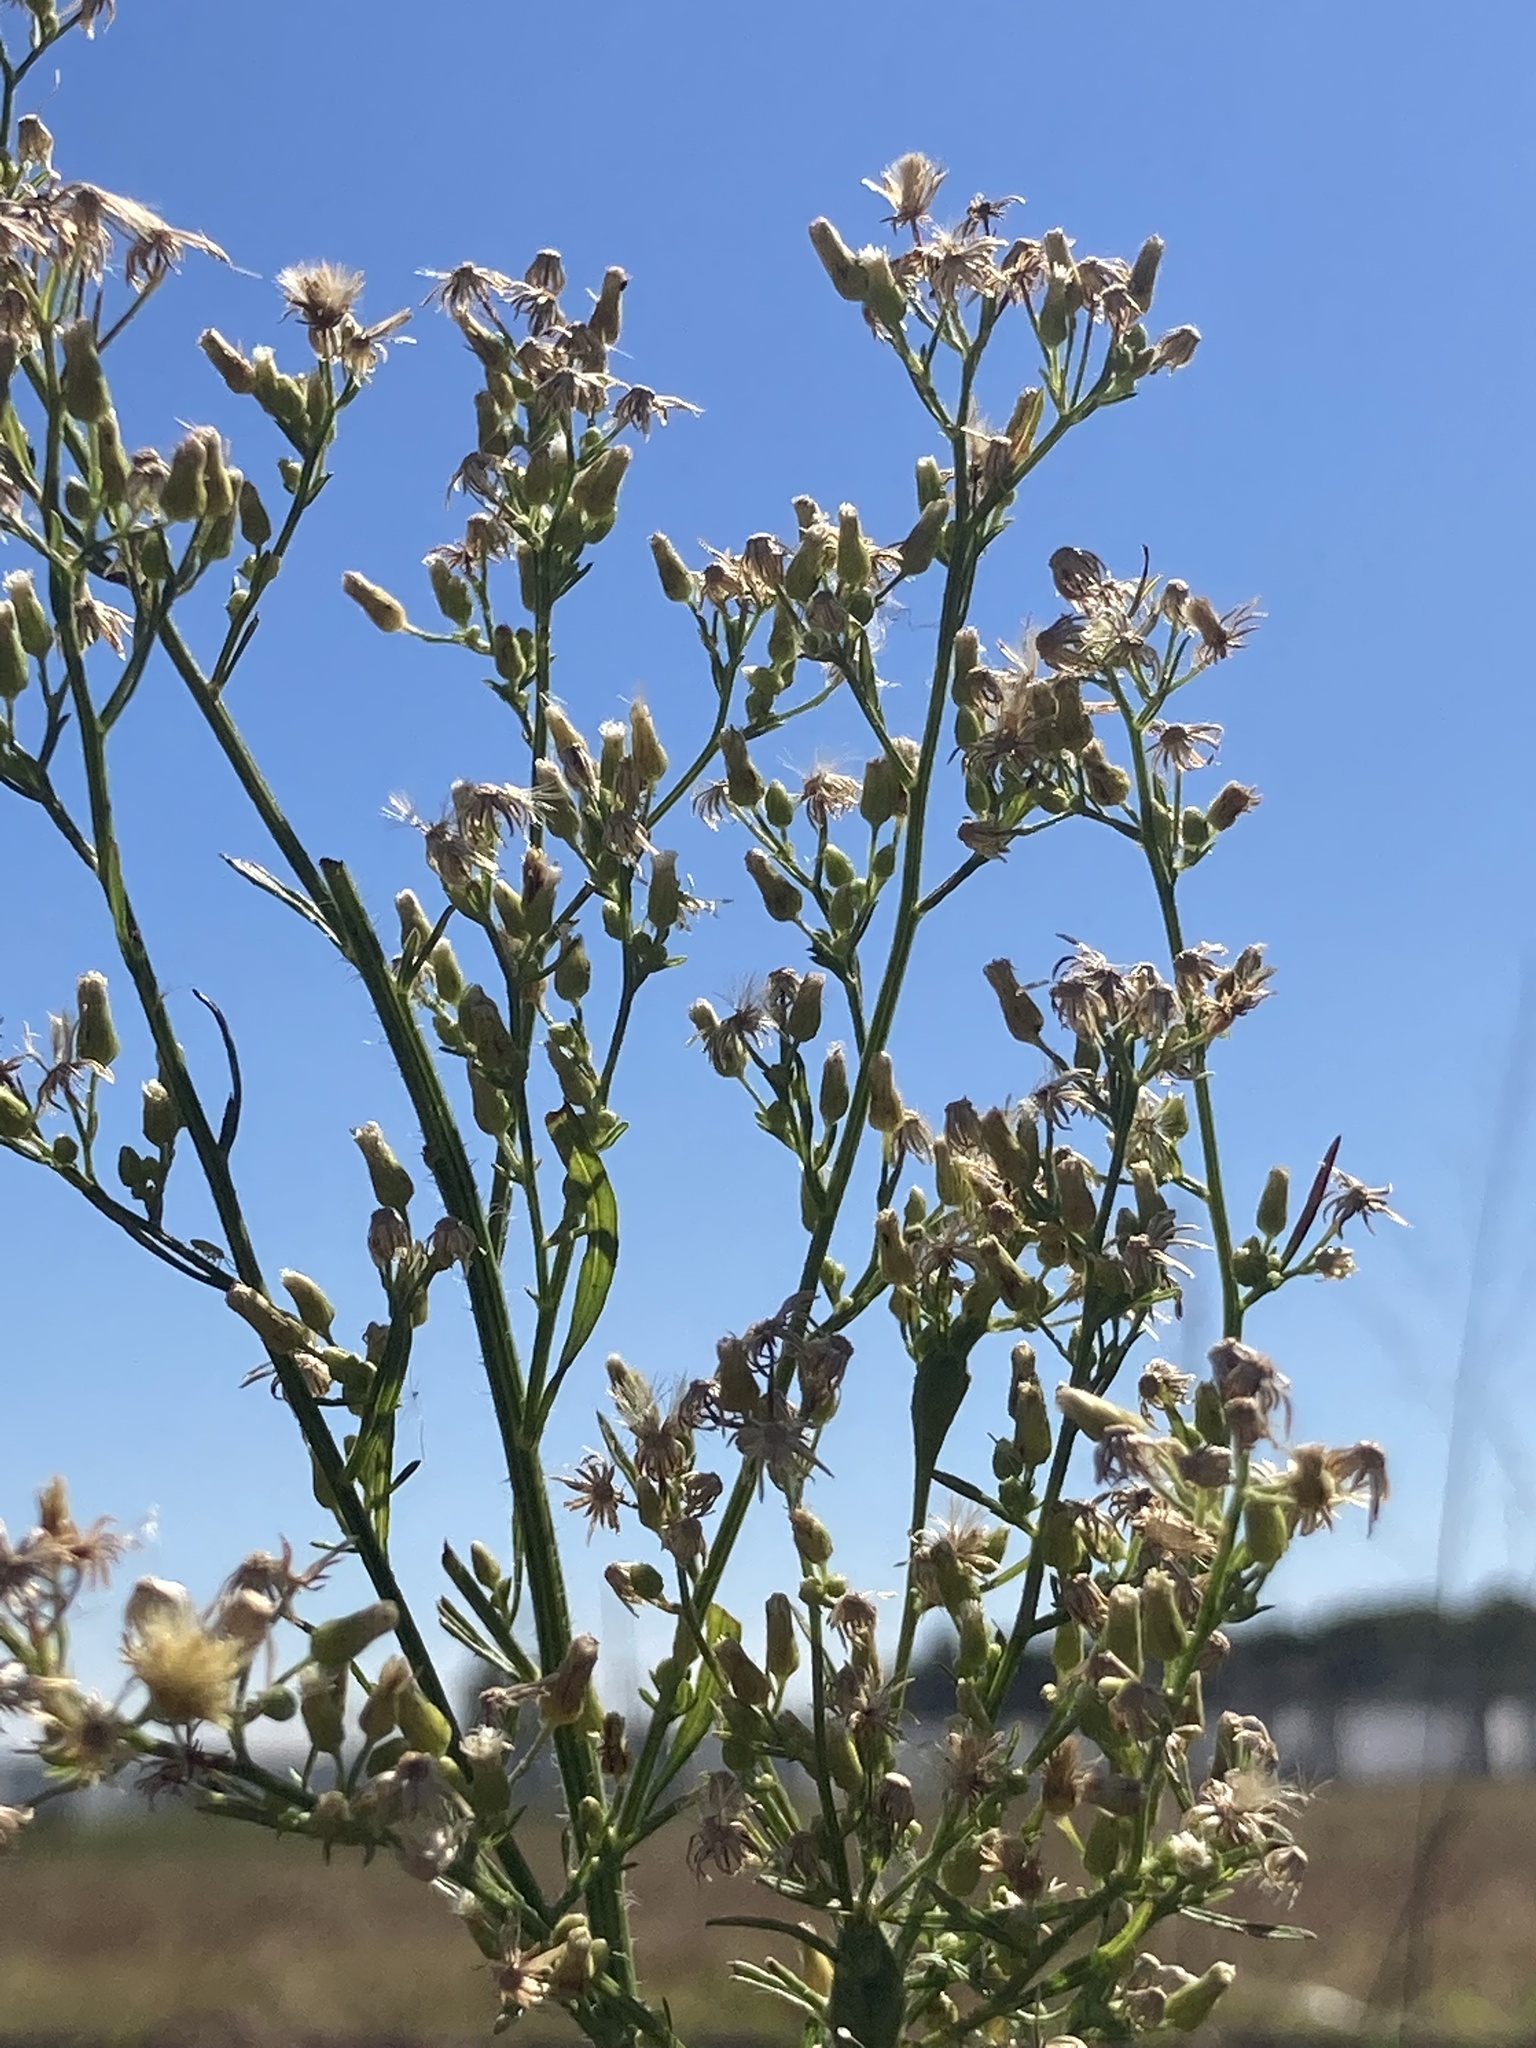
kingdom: Plantae
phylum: Tracheophyta
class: Magnoliopsida
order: Asterales
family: Asteraceae
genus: Erigeron
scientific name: Erigeron canadensis
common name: Canadian fleabane
